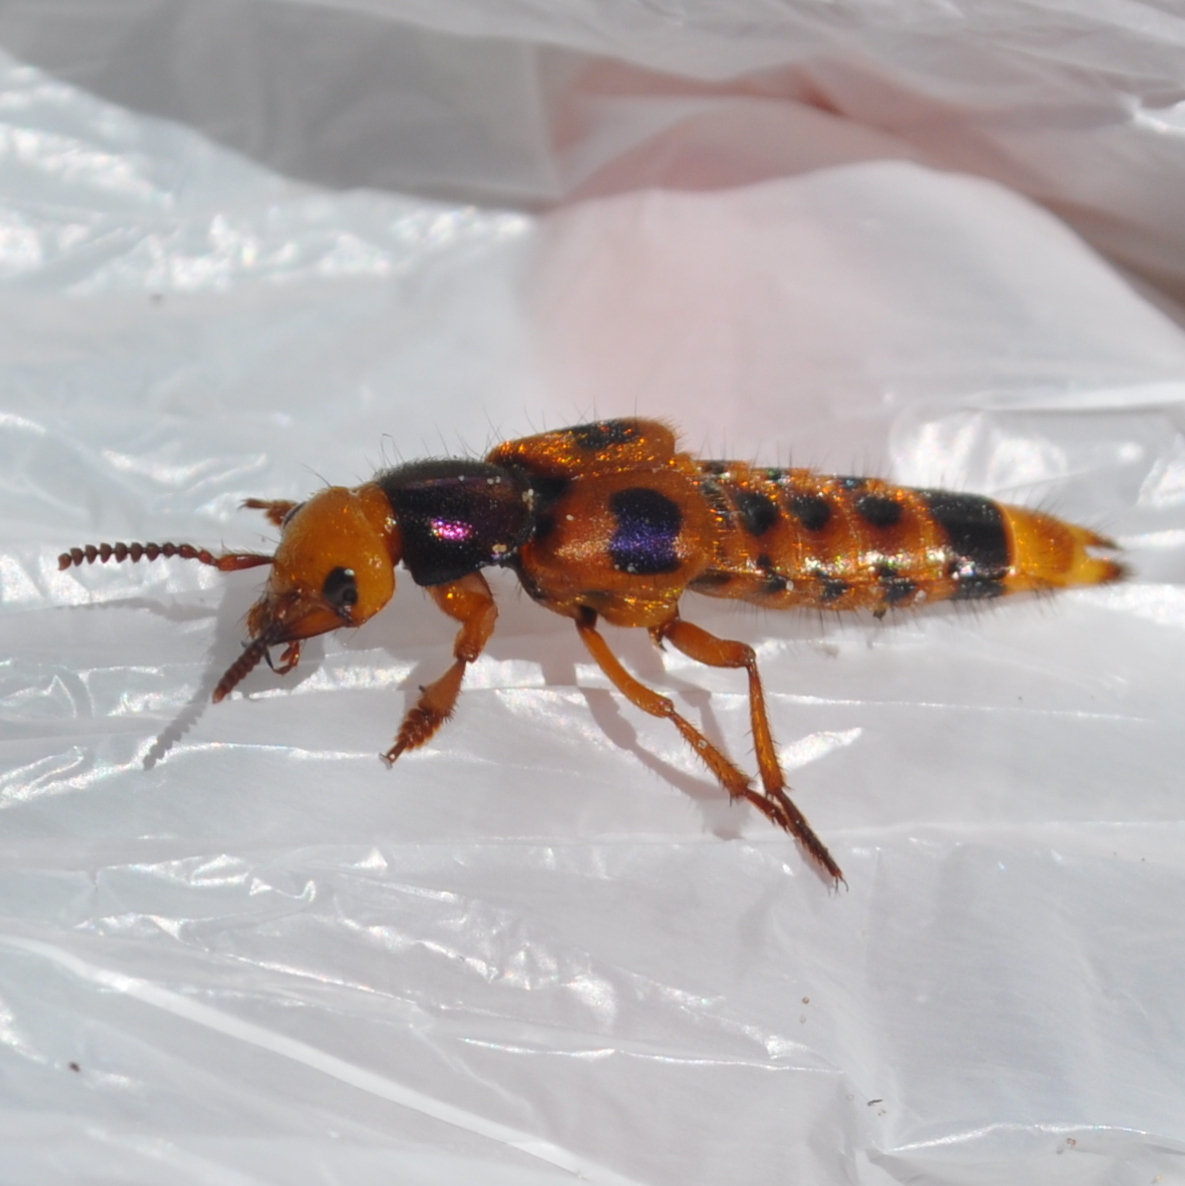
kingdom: Animalia
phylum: Arthropoda
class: Insecta
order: Coleoptera
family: Staphylinidae
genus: Glenus
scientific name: Glenus cyanicollis
